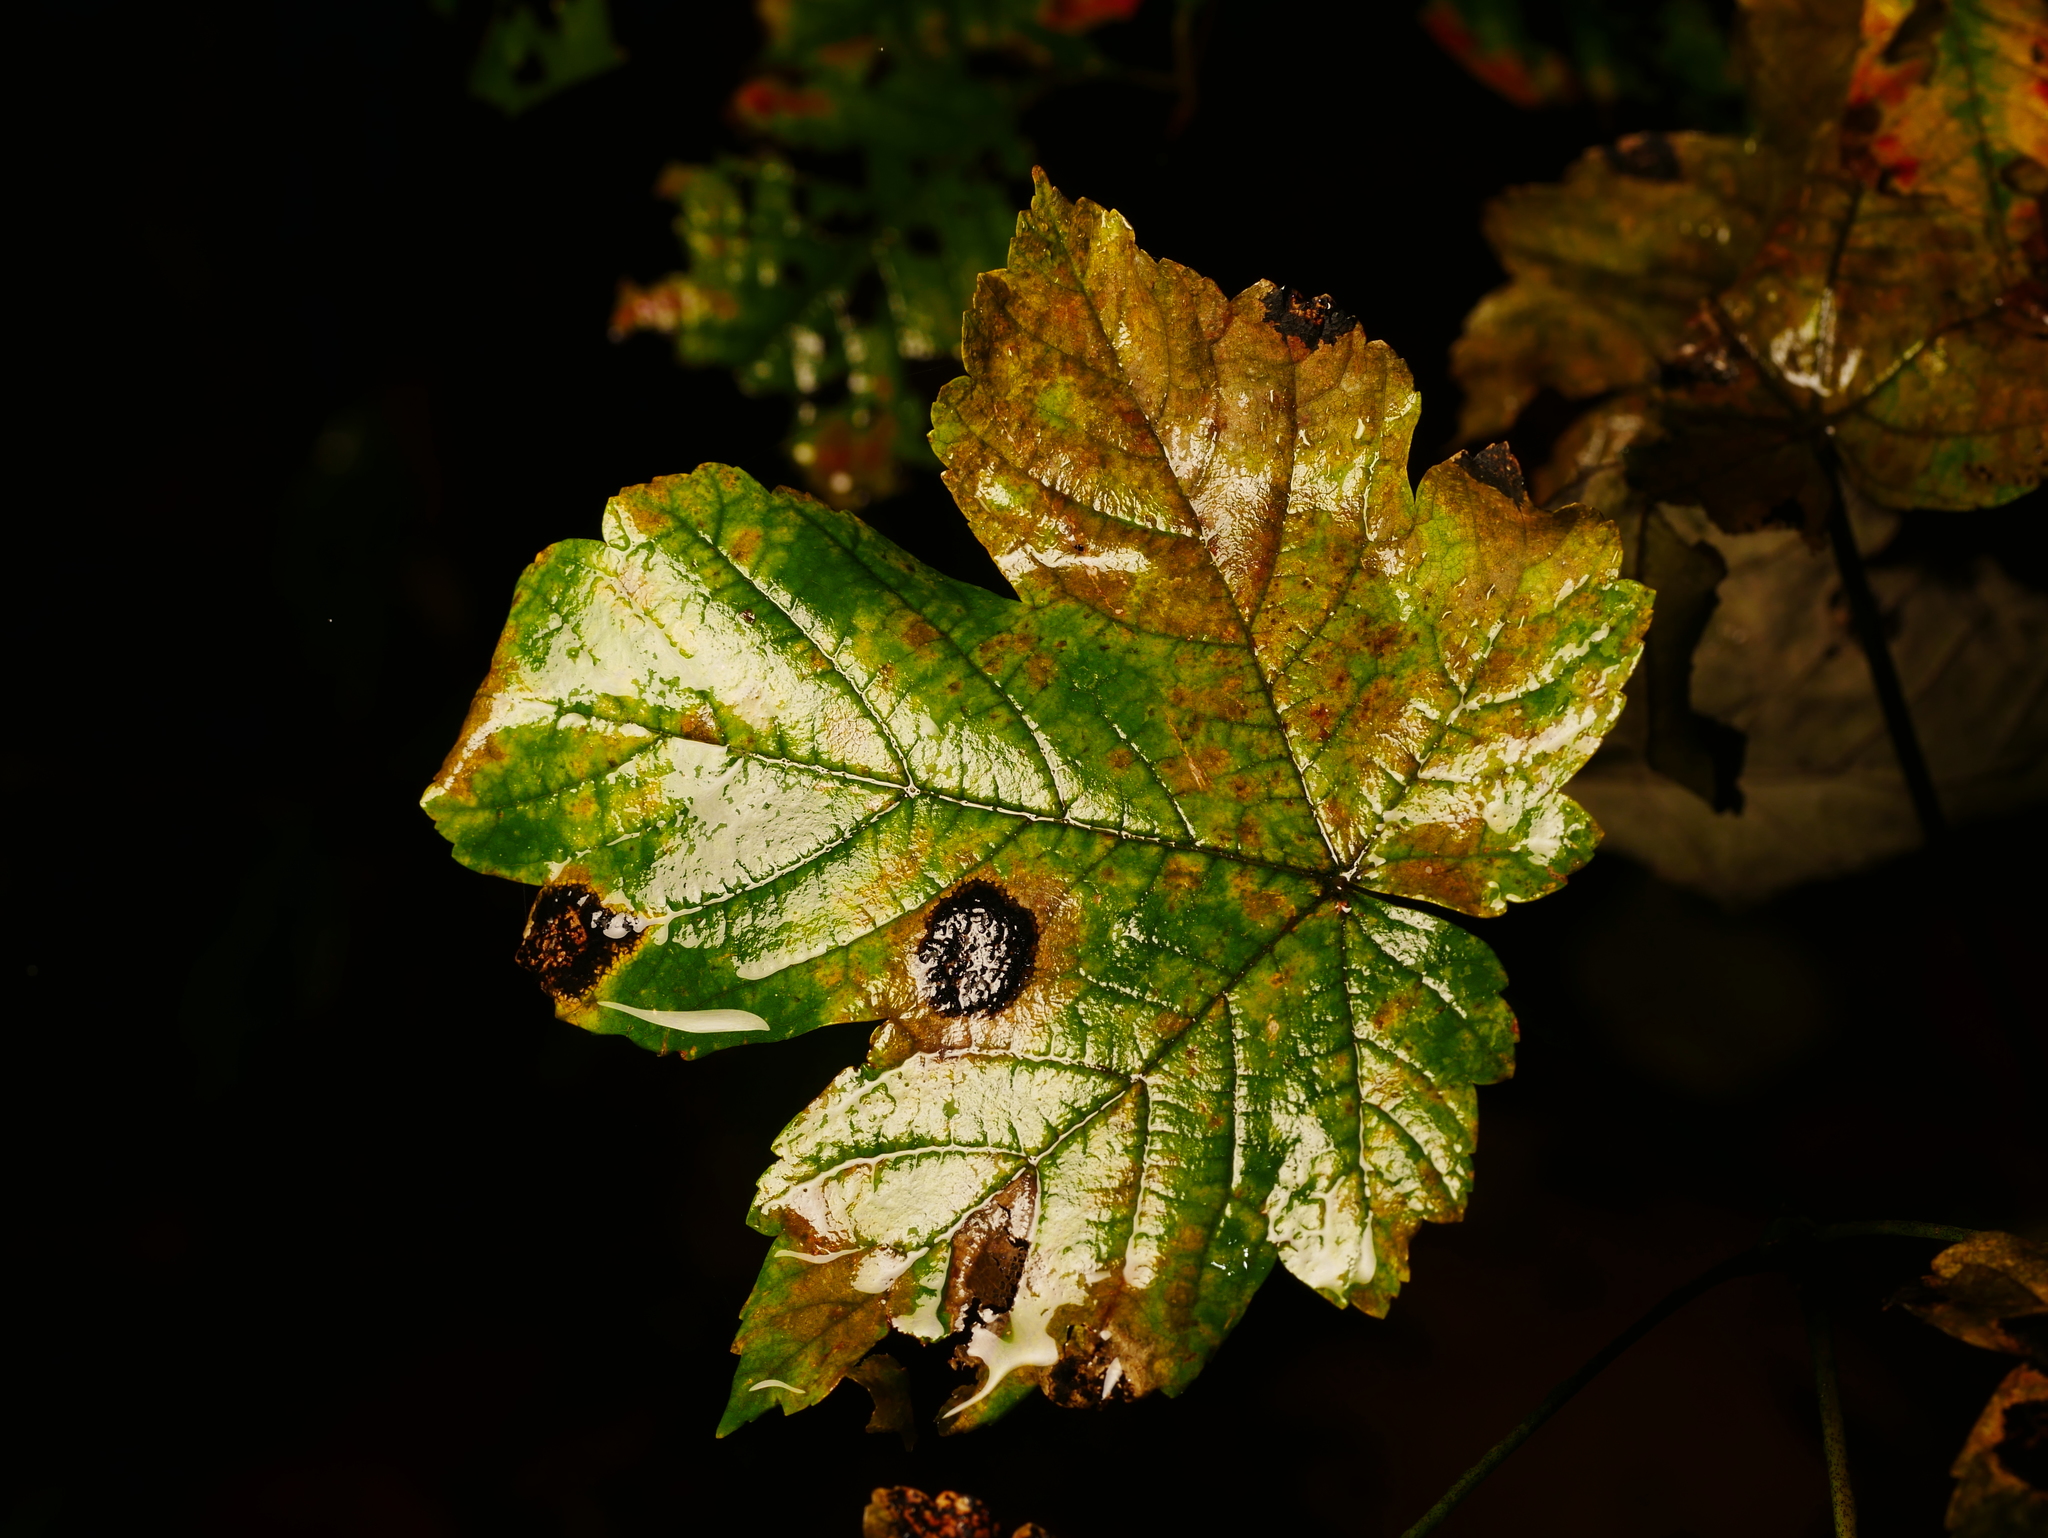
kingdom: Plantae
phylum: Tracheophyta
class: Magnoliopsida
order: Sapindales
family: Sapindaceae
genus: Acer
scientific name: Acer pseudoplatanus
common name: Sycamore
